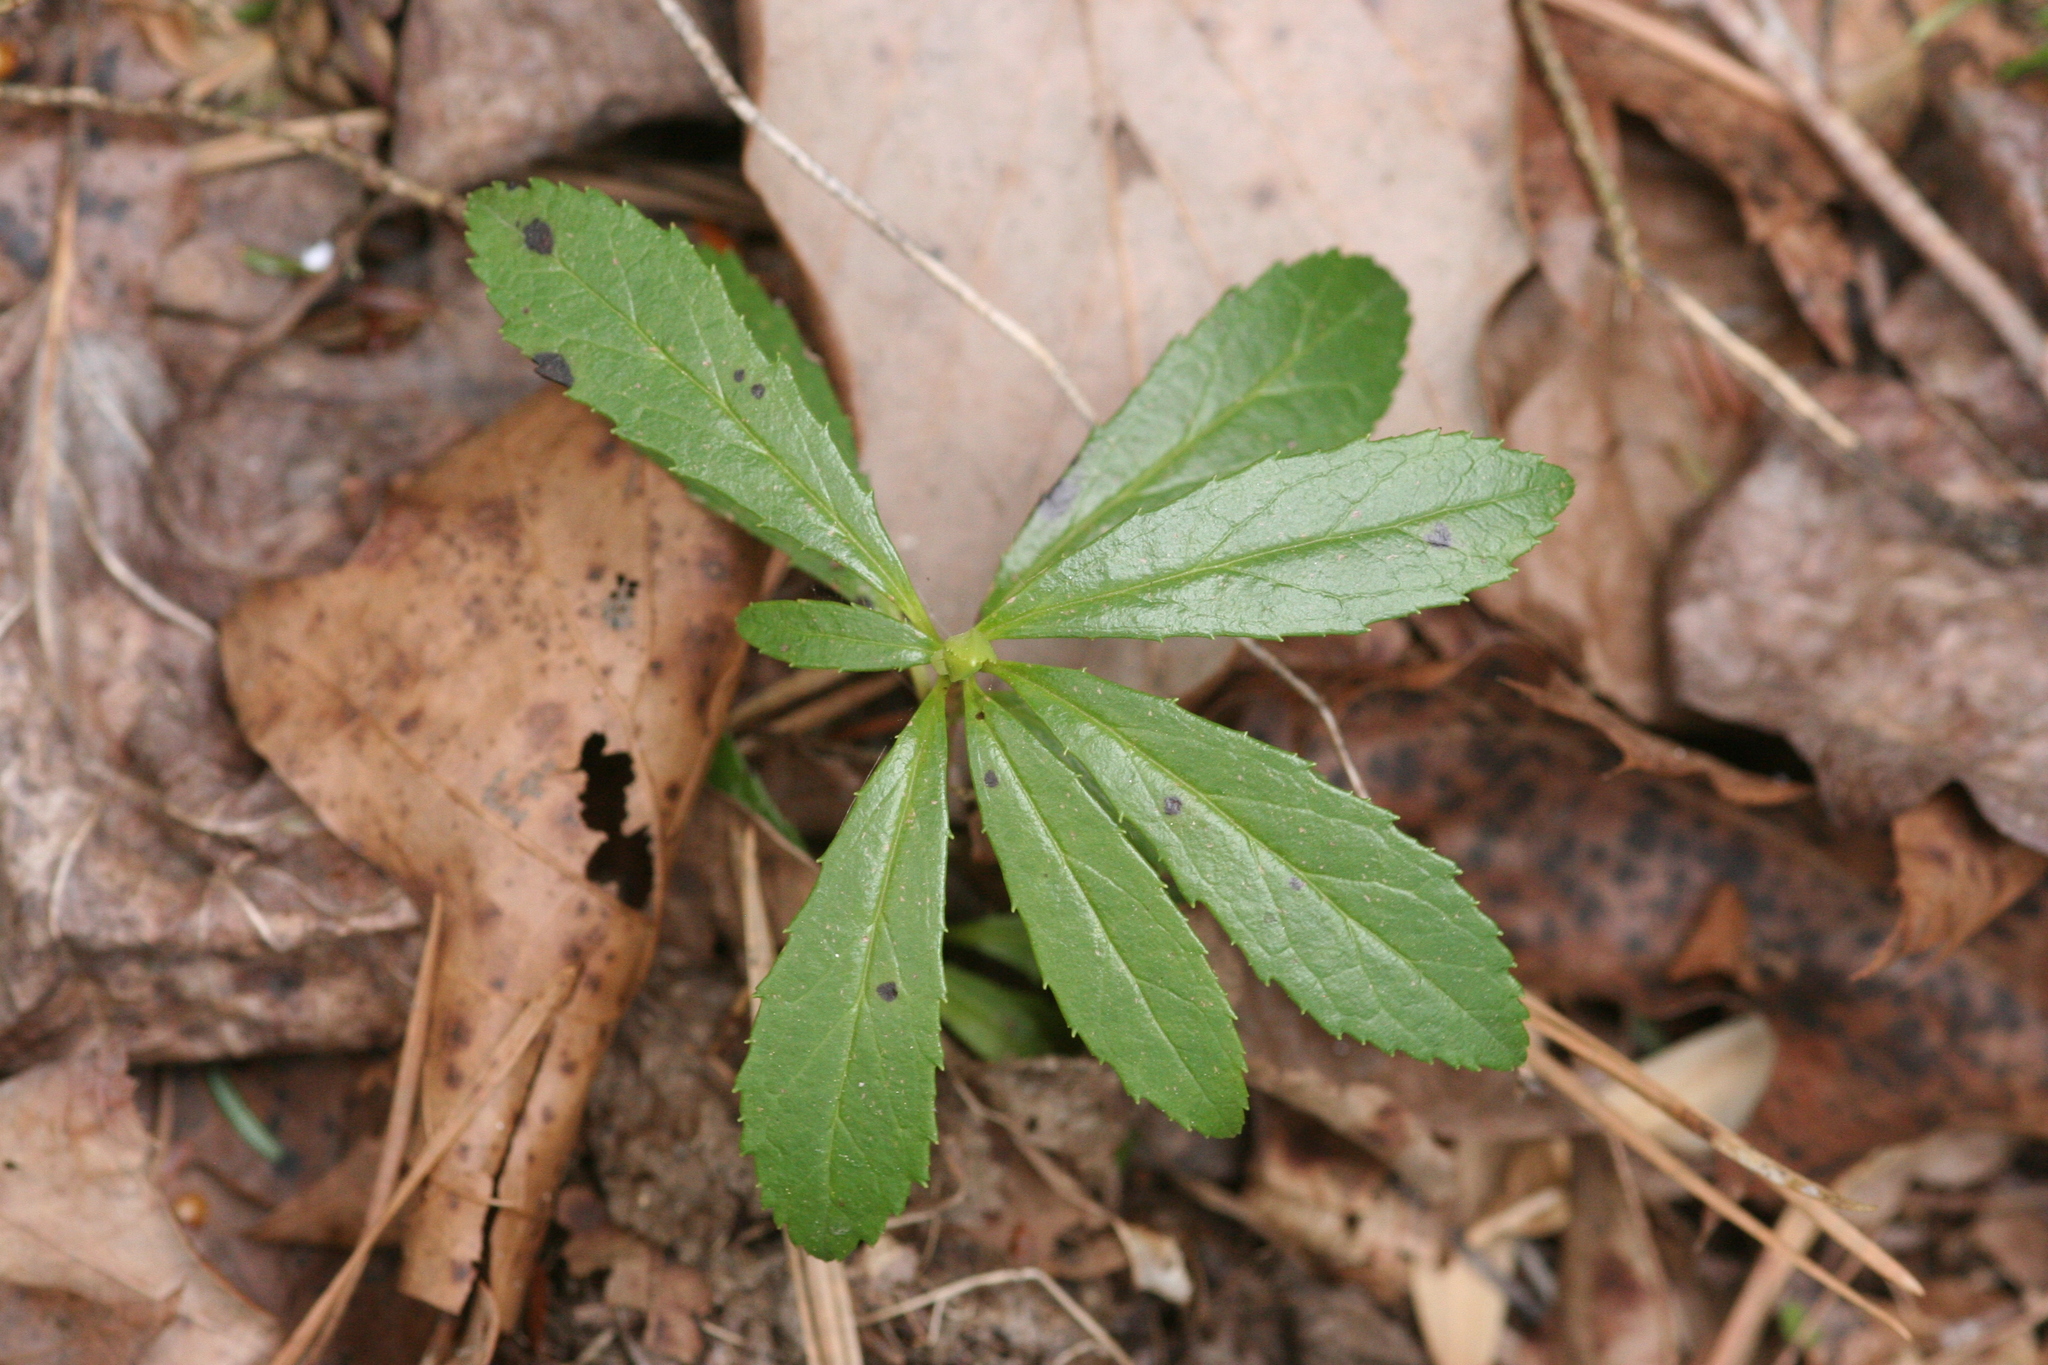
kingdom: Plantae
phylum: Tracheophyta
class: Magnoliopsida
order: Ericales
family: Ericaceae
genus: Chimaphila
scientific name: Chimaphila umbellata
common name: Pipsissewa
